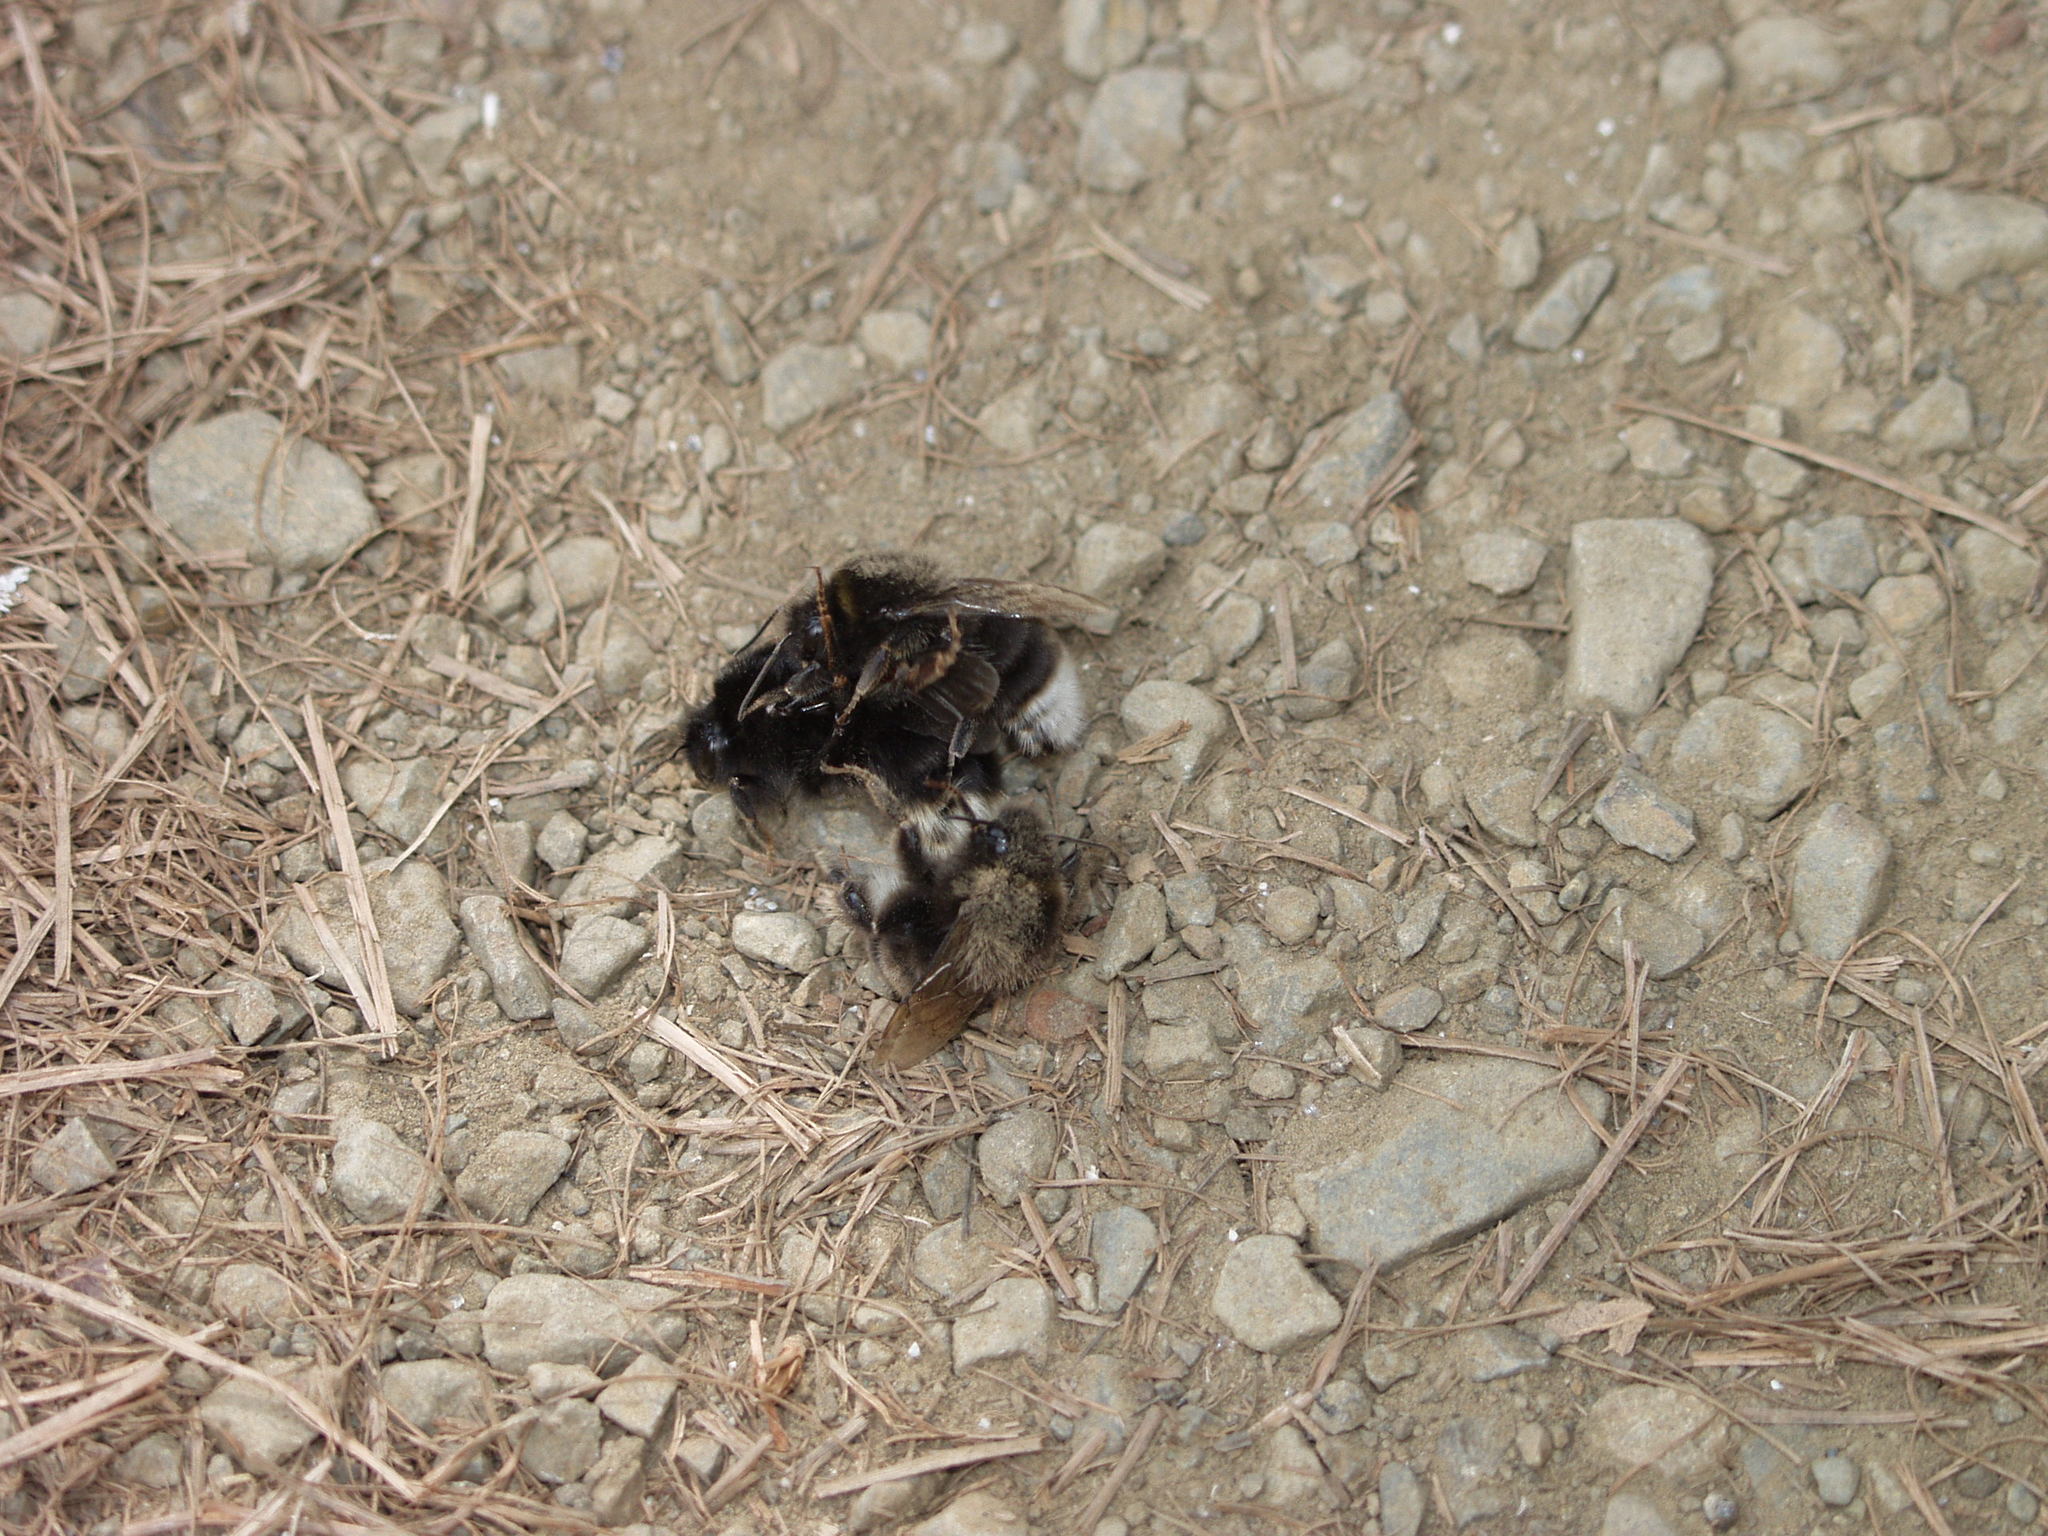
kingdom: Animalia
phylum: Arthropoda
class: Insecta
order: Hymenoptera
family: Apidae
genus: Bombus
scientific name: Bombus terrestris
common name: Buff-tailed bumblebee
